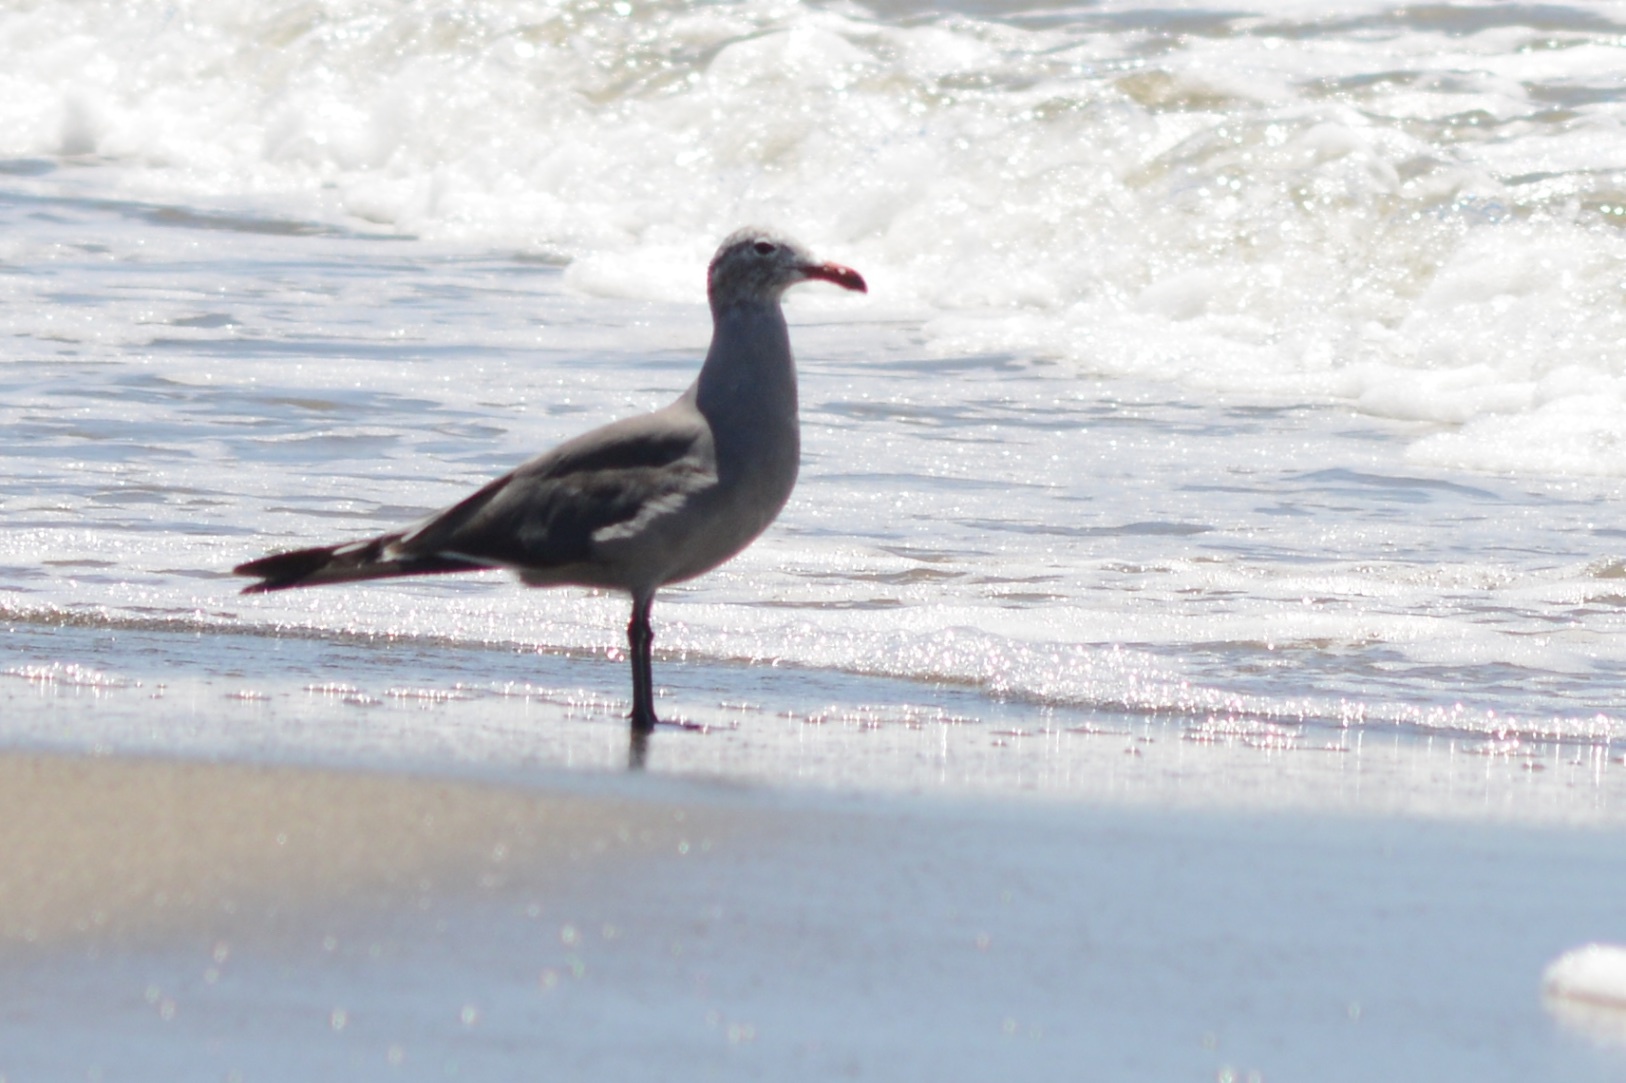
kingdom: Animalia
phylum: Chordata
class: Aves
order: Charadriiformes
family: Laridae
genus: Larus
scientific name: Larus heermanni
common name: Heermann's gull
